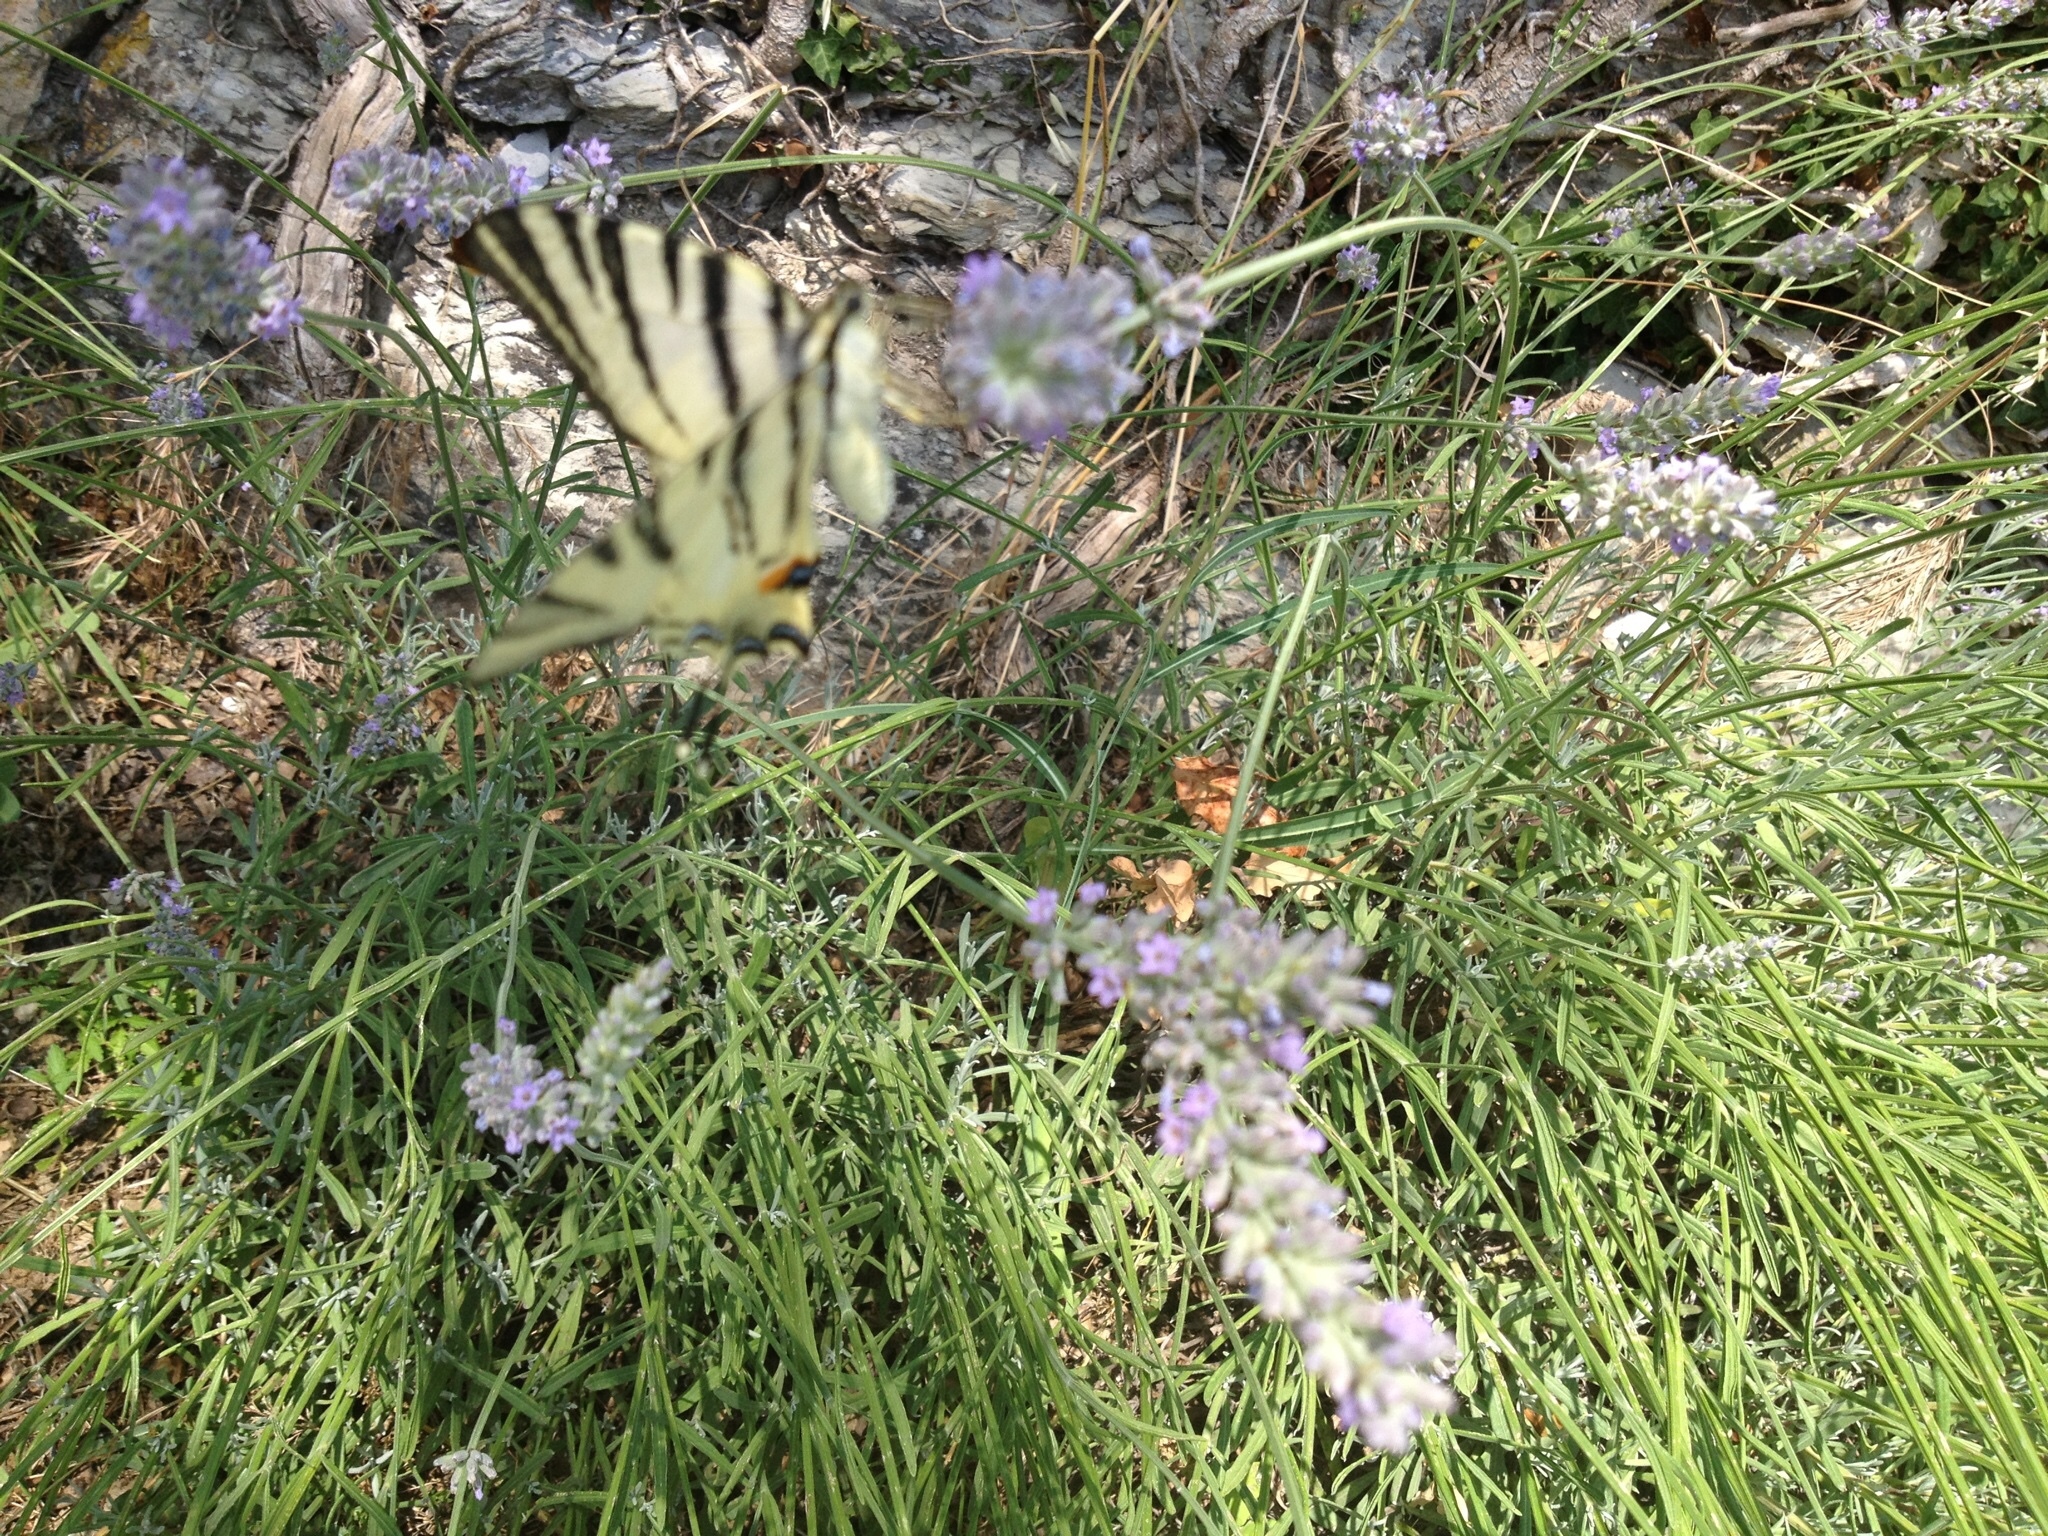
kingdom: Animalia
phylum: Arthropoda
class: Insecta
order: Lepidoptera
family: Papilionidae
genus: Iphiclides
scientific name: Iphiclides podalirius
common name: Scarce swallowtail
